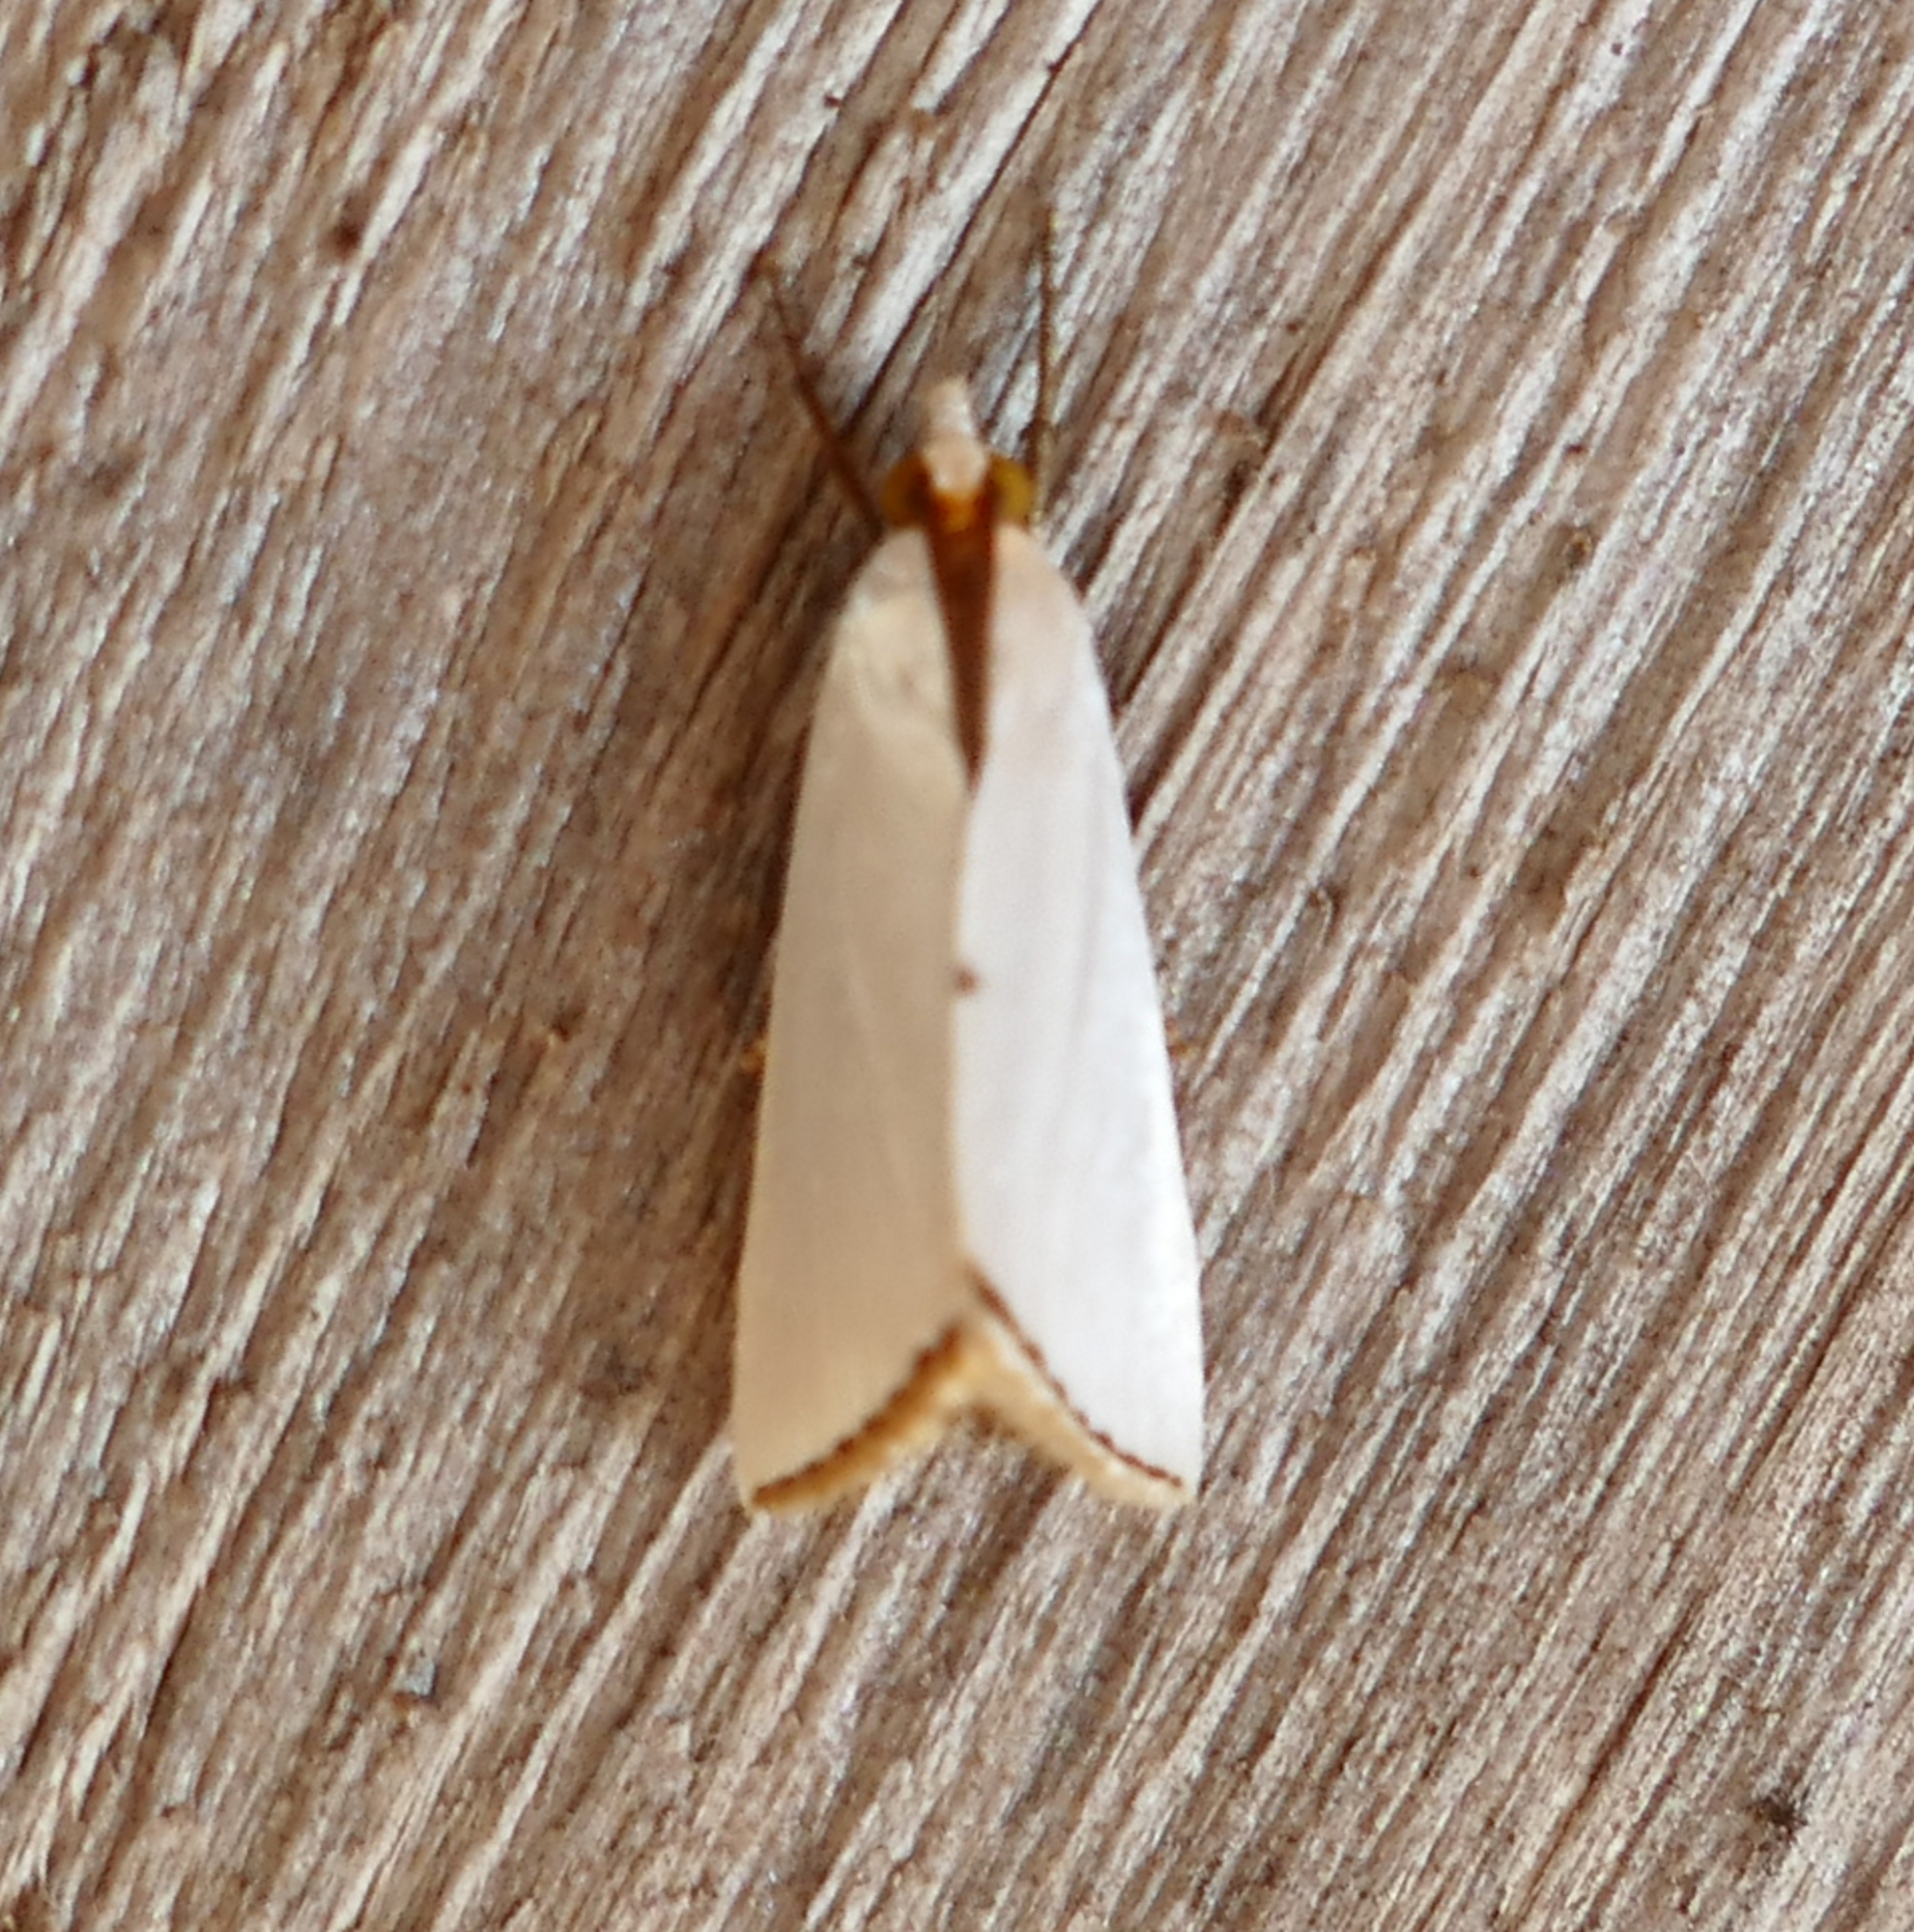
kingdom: Animalia
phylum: Arthropoda
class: Insecta
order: Lepidoptera
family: Crambidae
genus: Argyria
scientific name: Argyria nivalis
